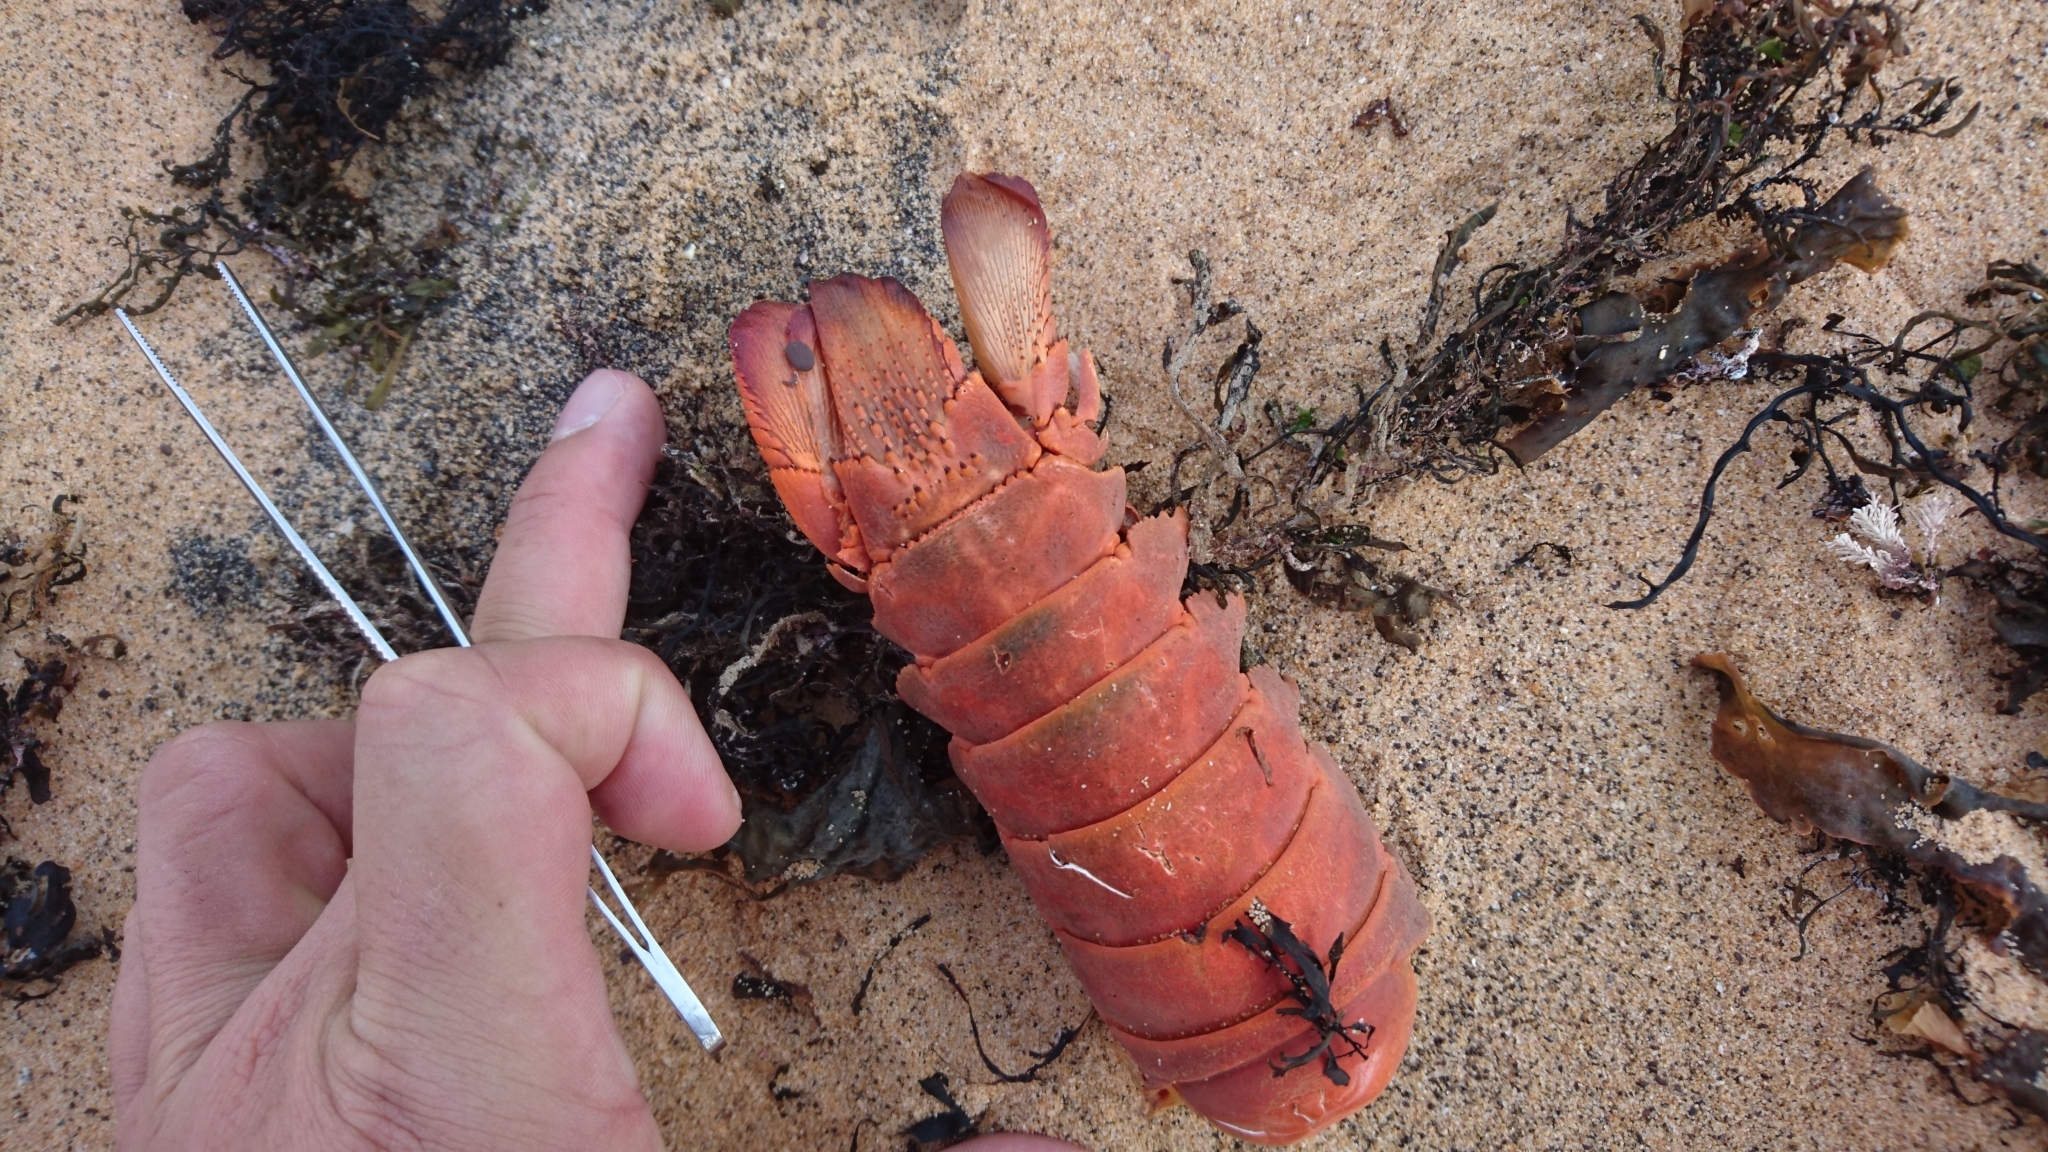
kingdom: Animalia
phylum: Arthropoda
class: Malacostraca
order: Decapoda
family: Palinuridae
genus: Sagmariasus
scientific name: Sagmariasus verreauxi
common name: Green rock lobster
